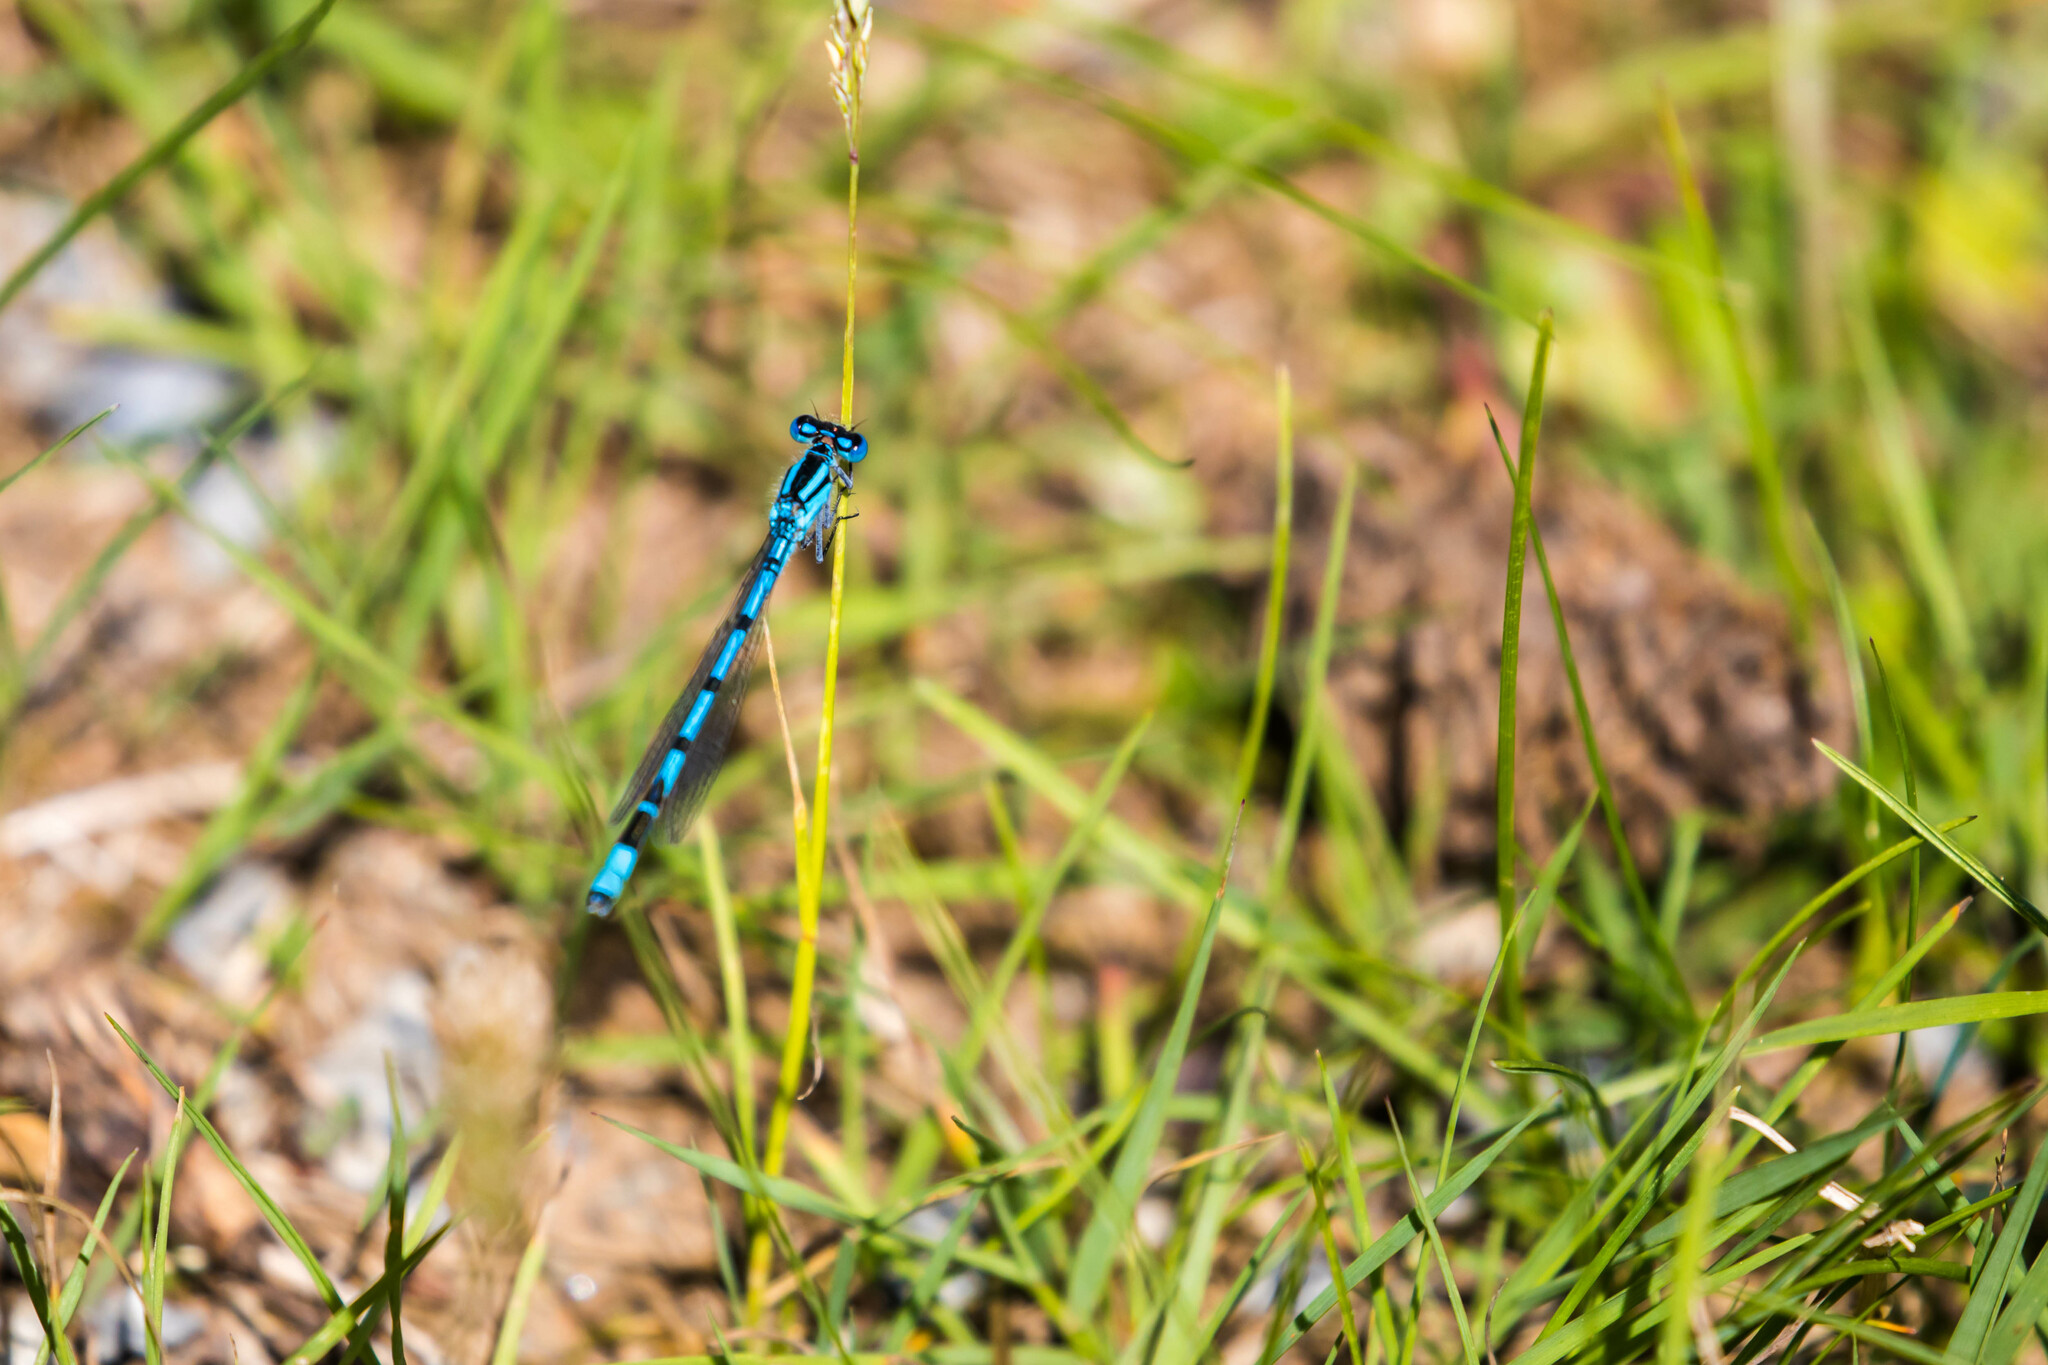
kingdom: Animalia
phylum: Arthropoda
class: Insecta
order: Odonata
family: Coenagrionidae
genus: Enallagma
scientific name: Enallagma cyathigerum
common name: Common blue damselfly
